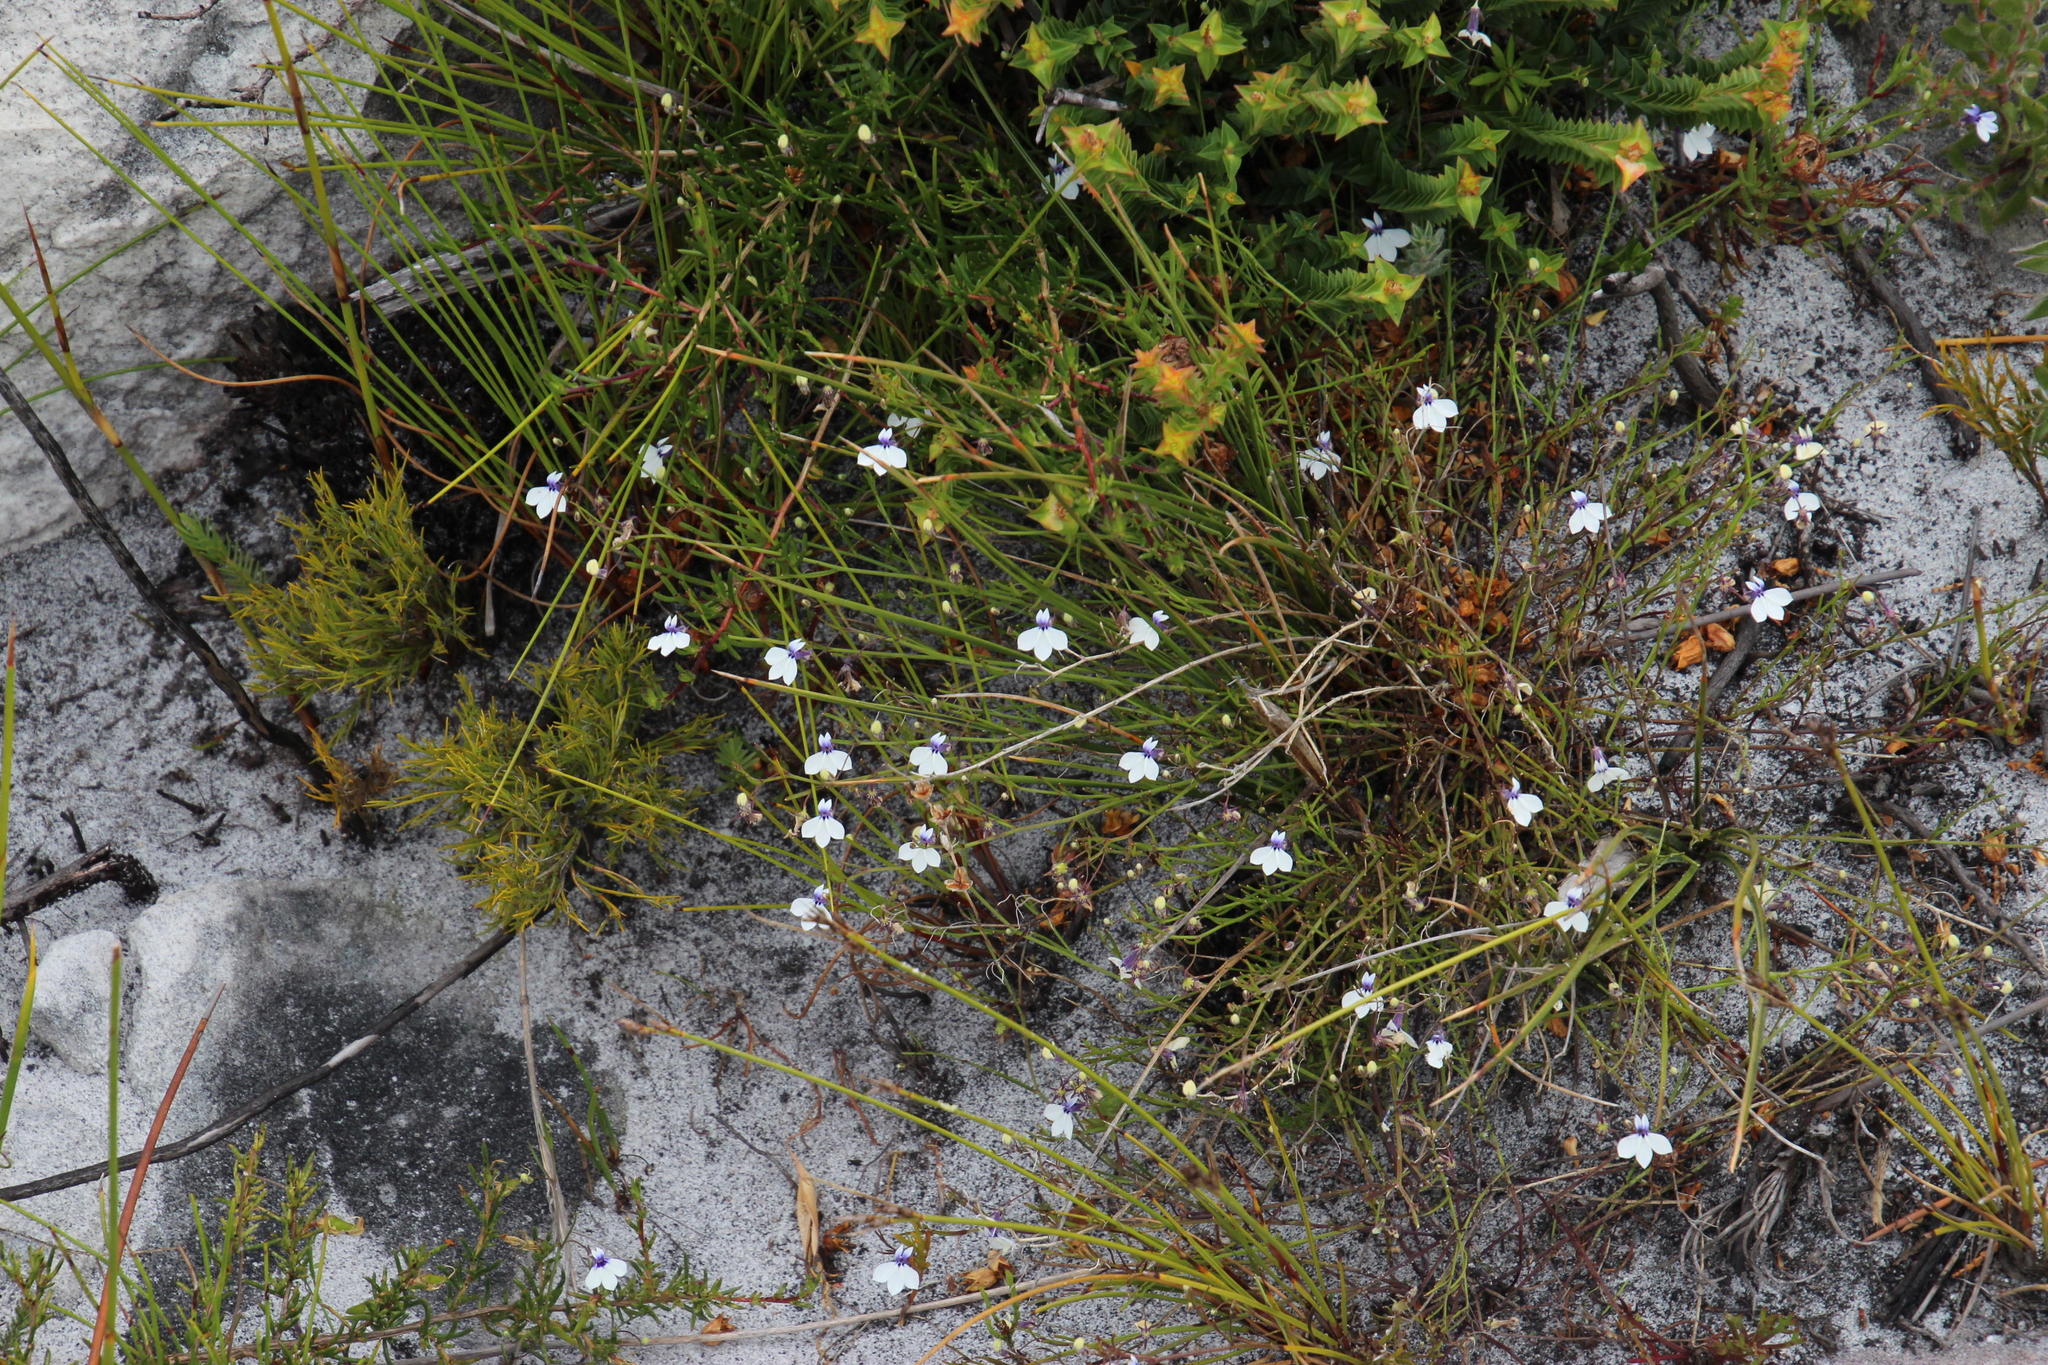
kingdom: Plantae
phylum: Tracheophyta
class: Magnoliopsida
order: Asterales
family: Campanulaceae
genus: Lobelia
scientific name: Lobelia setacea
